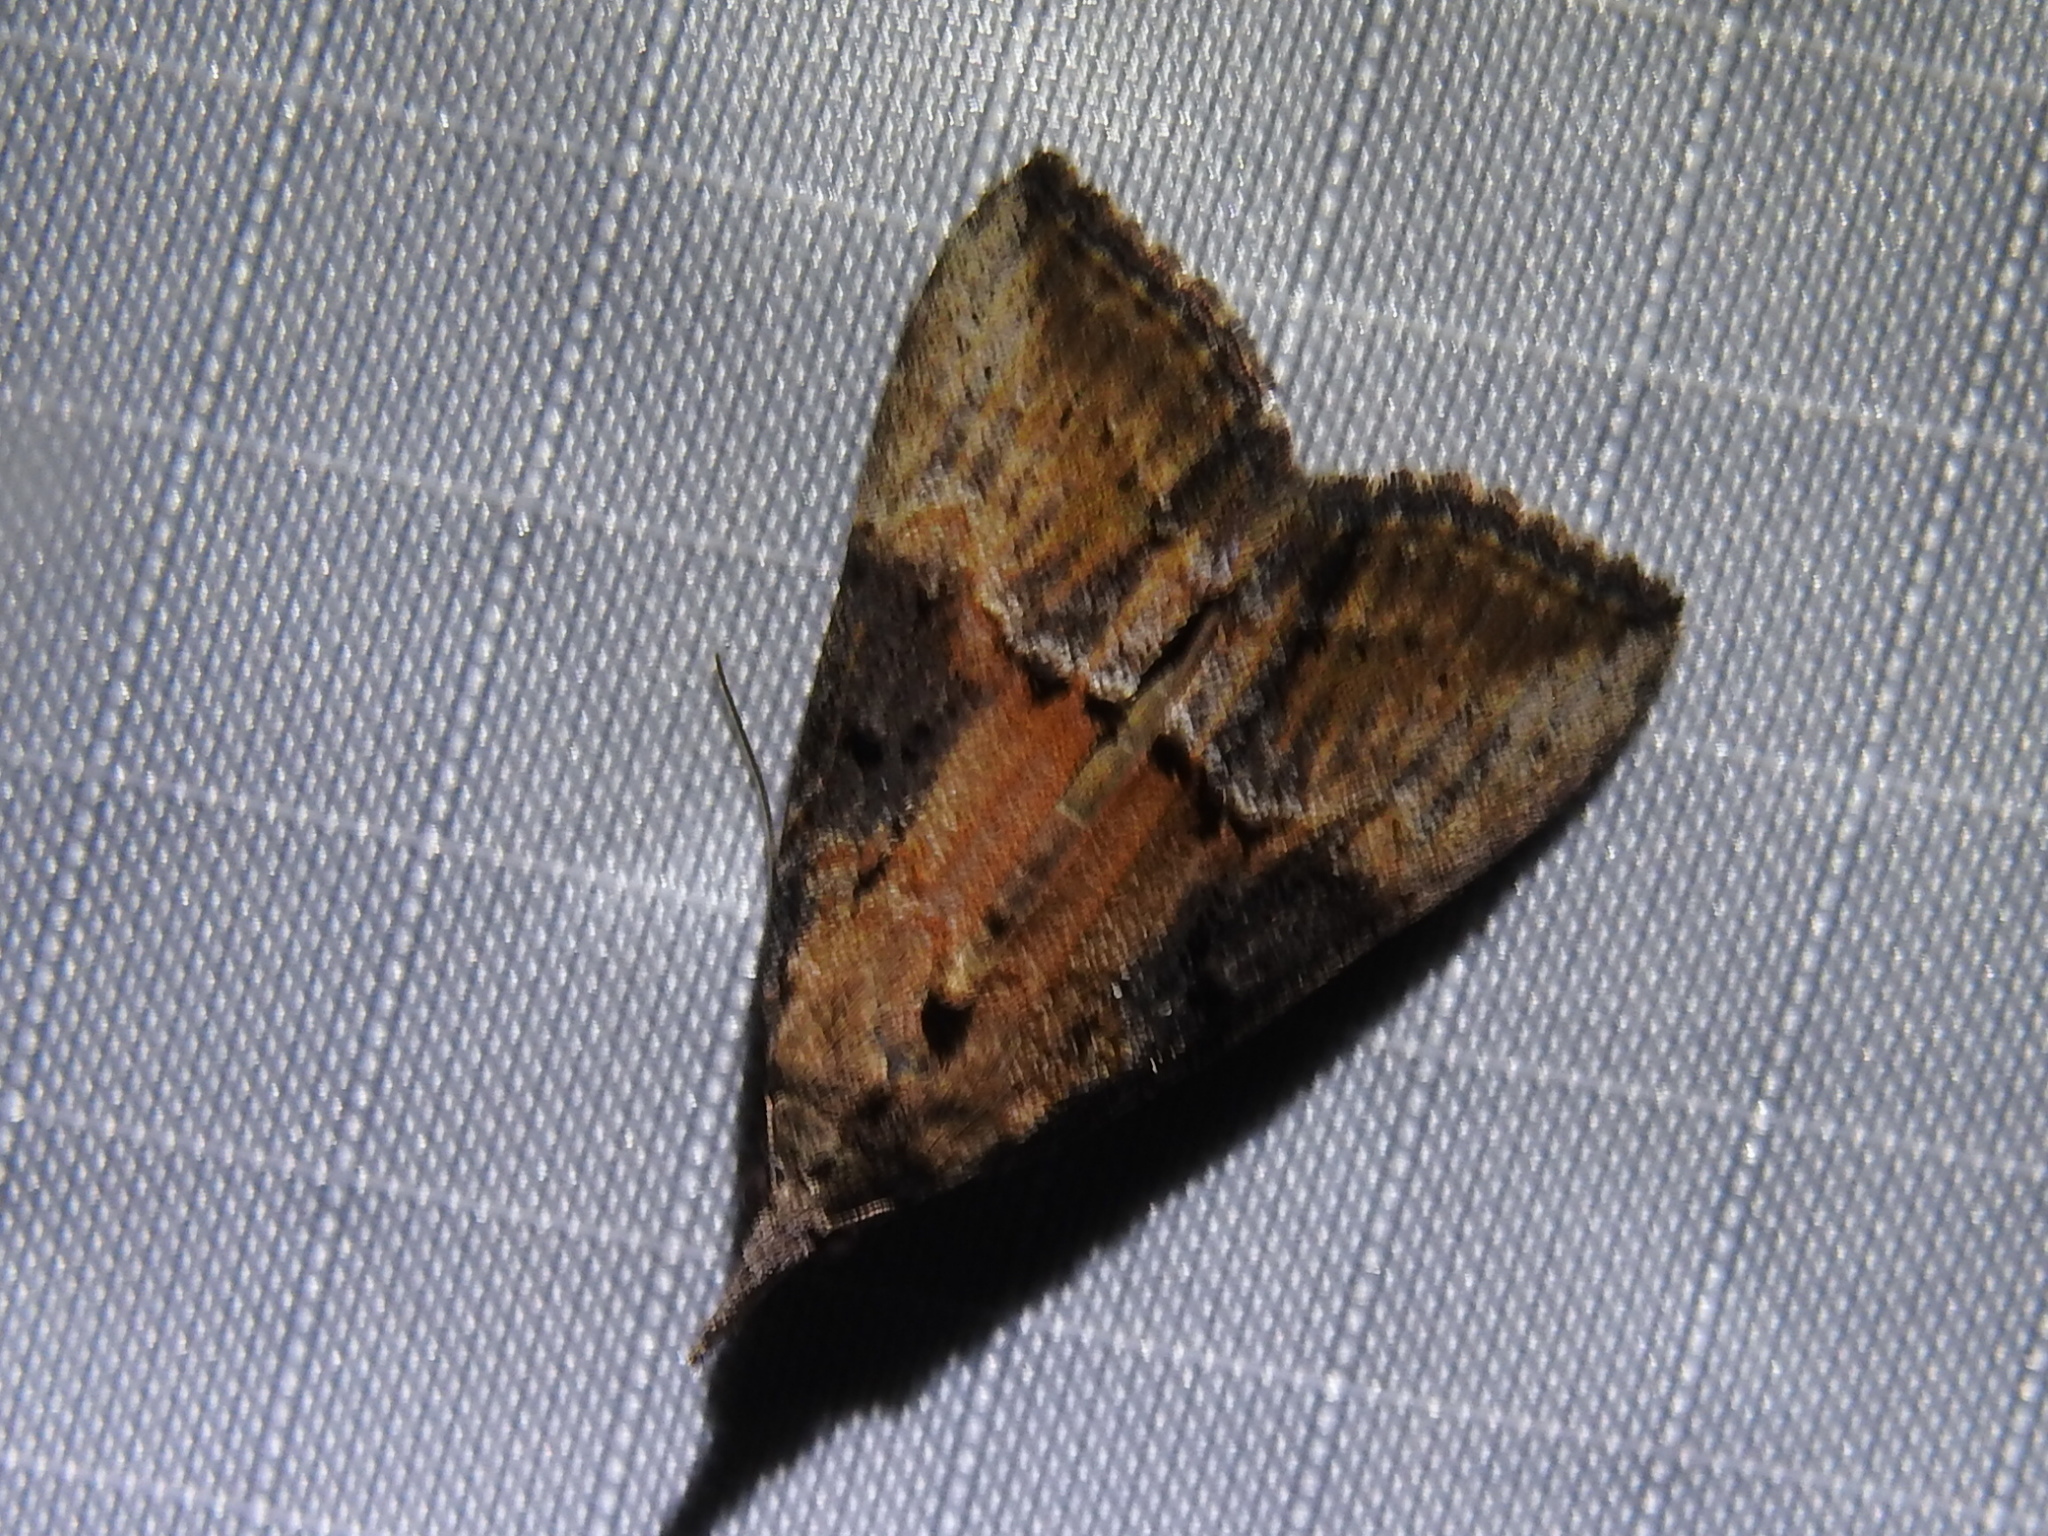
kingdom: Animalia
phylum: Arthropoda
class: Insecta
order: Lepidoptera
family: Erebidae
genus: Hypena
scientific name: Hypena scabra
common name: Green cloverworm
